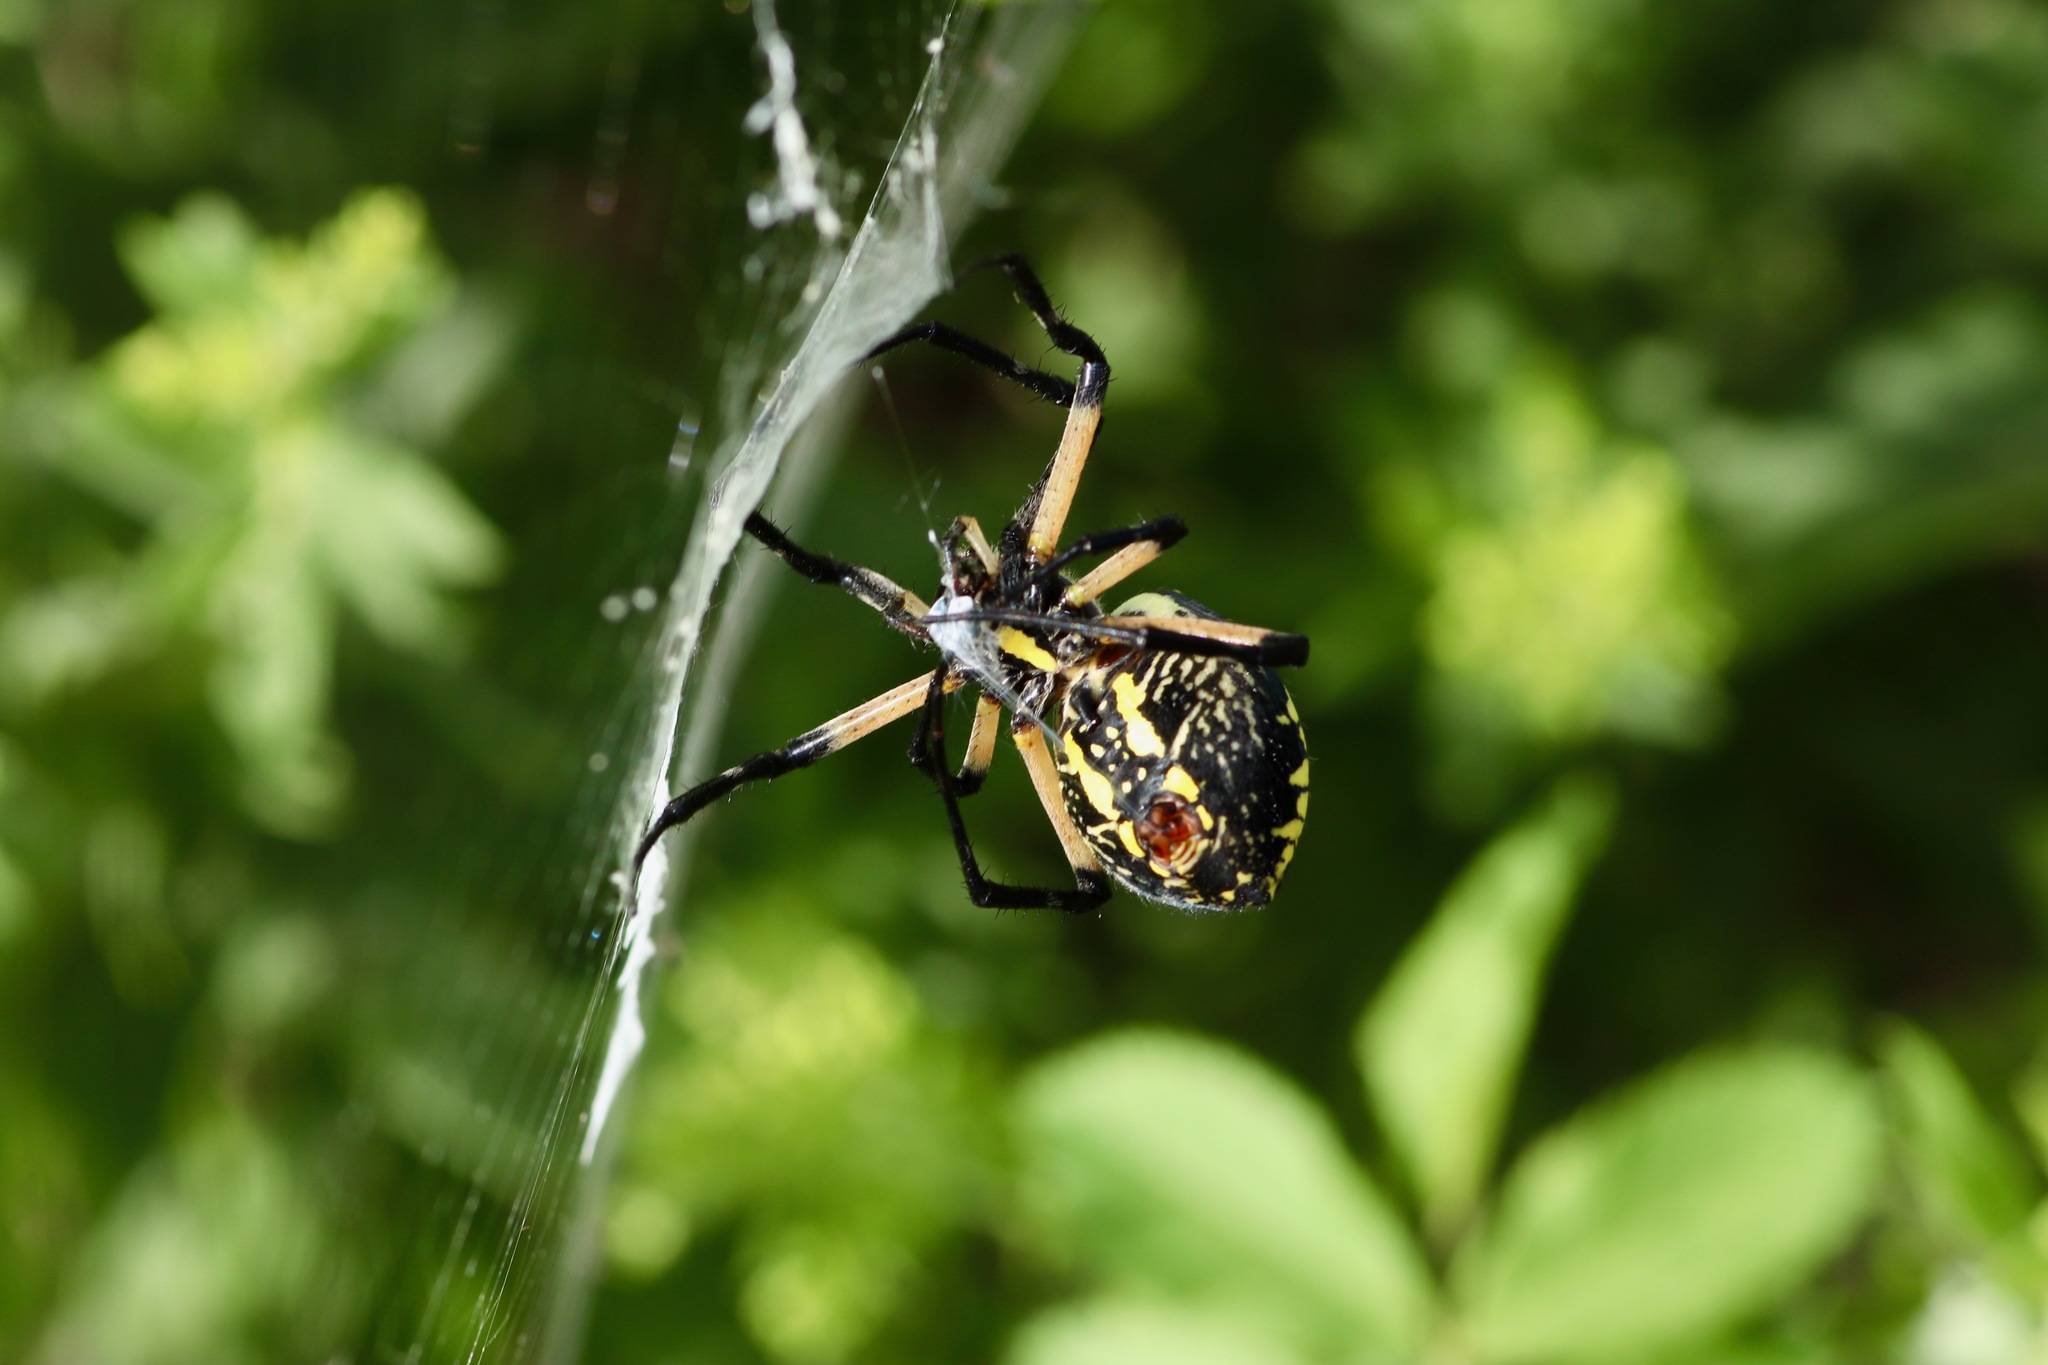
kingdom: Animalia
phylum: Arthropoda
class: Arachnida
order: Araneae
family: Araneidae
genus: Argiope
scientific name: Argiope aurantia
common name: Orb weavers
